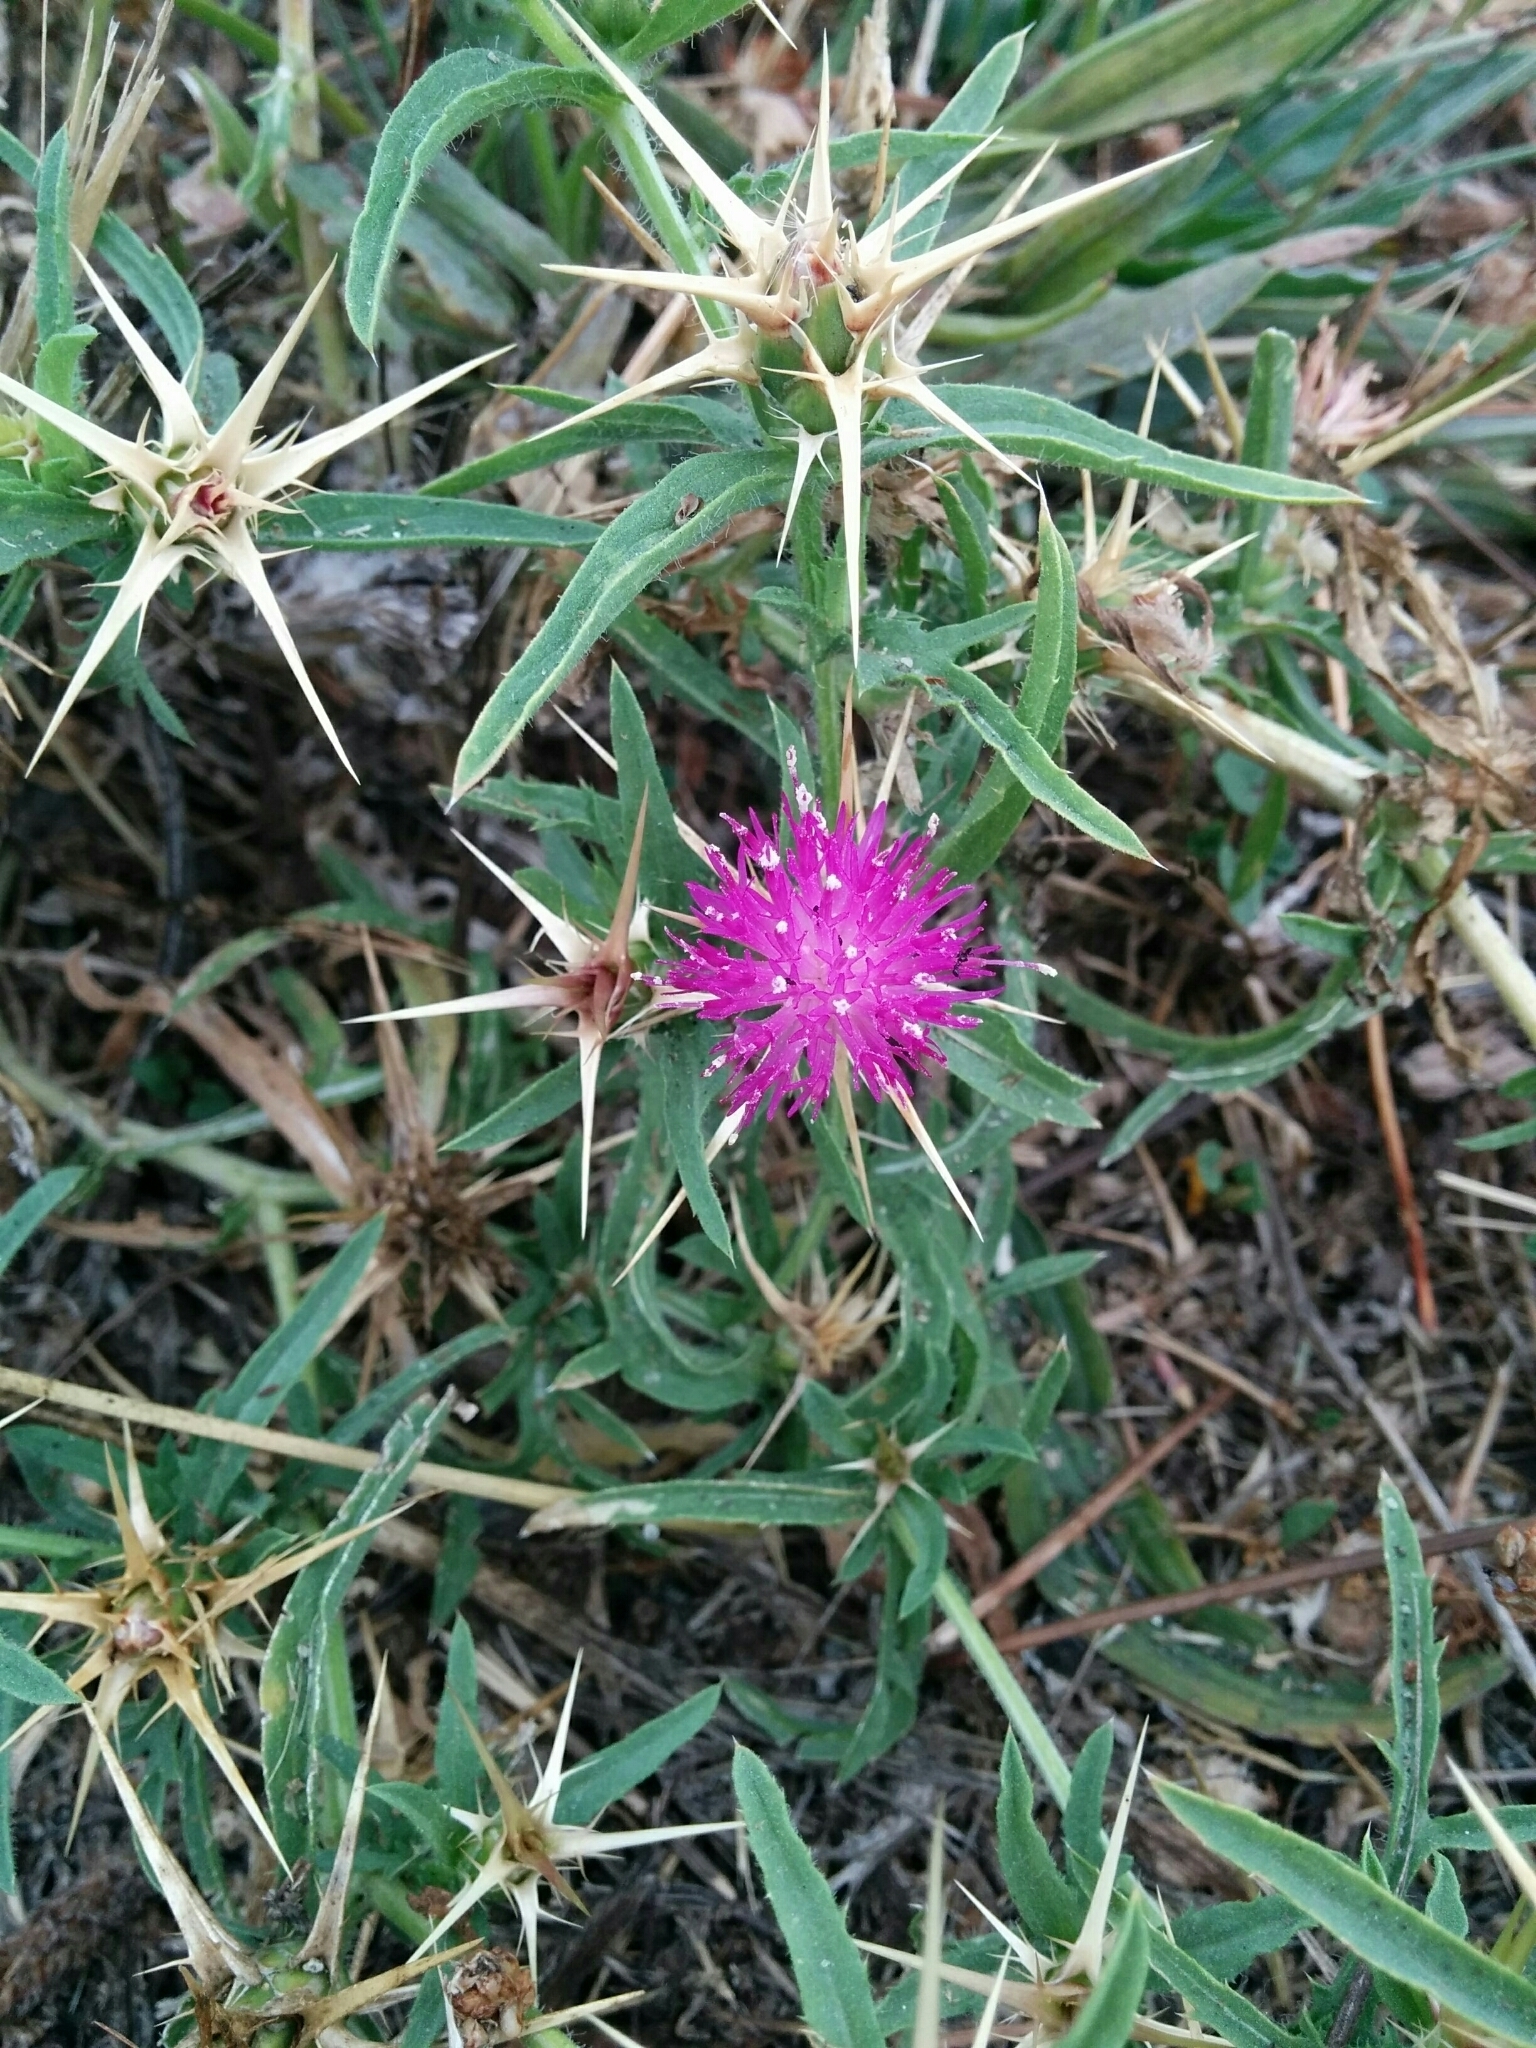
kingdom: Plantae
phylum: Tracheophyta
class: Magnoliopsida
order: Asterales
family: Asteraceae
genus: Centaurea
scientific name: Centaurea calcitrapa
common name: Red star-thistle
